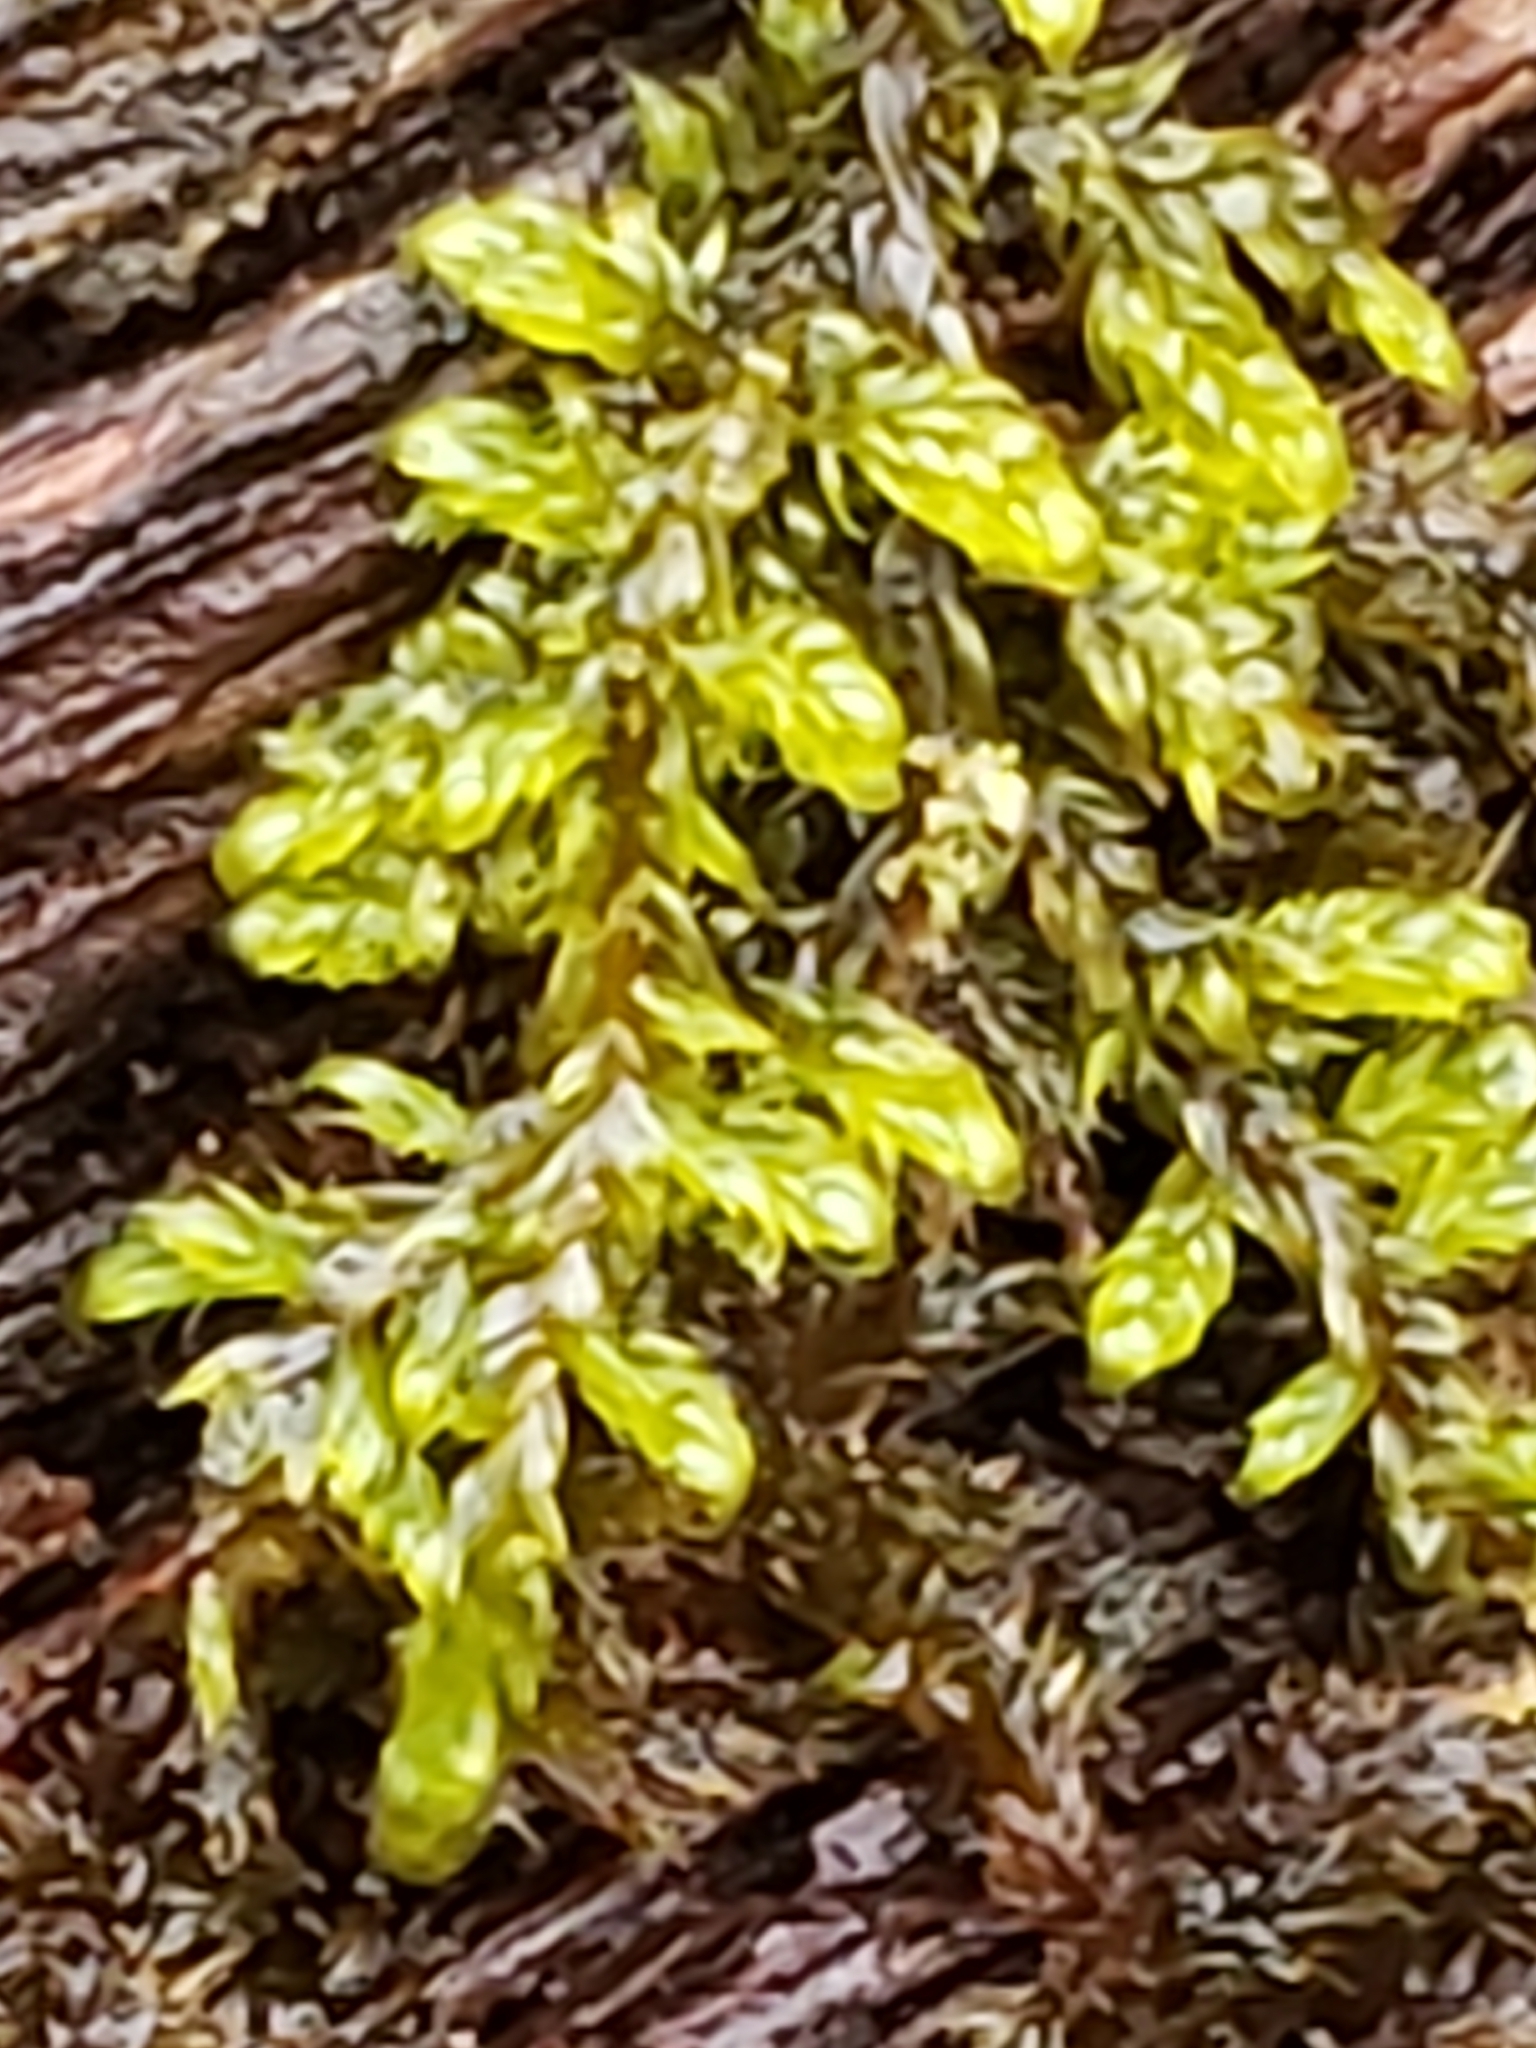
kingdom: Plantae
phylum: Bryophyta
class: Bryopsida
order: Hypnales
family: Callicladiaceae
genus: Callicladium
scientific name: Callicladium imponens
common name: Brocade moss
